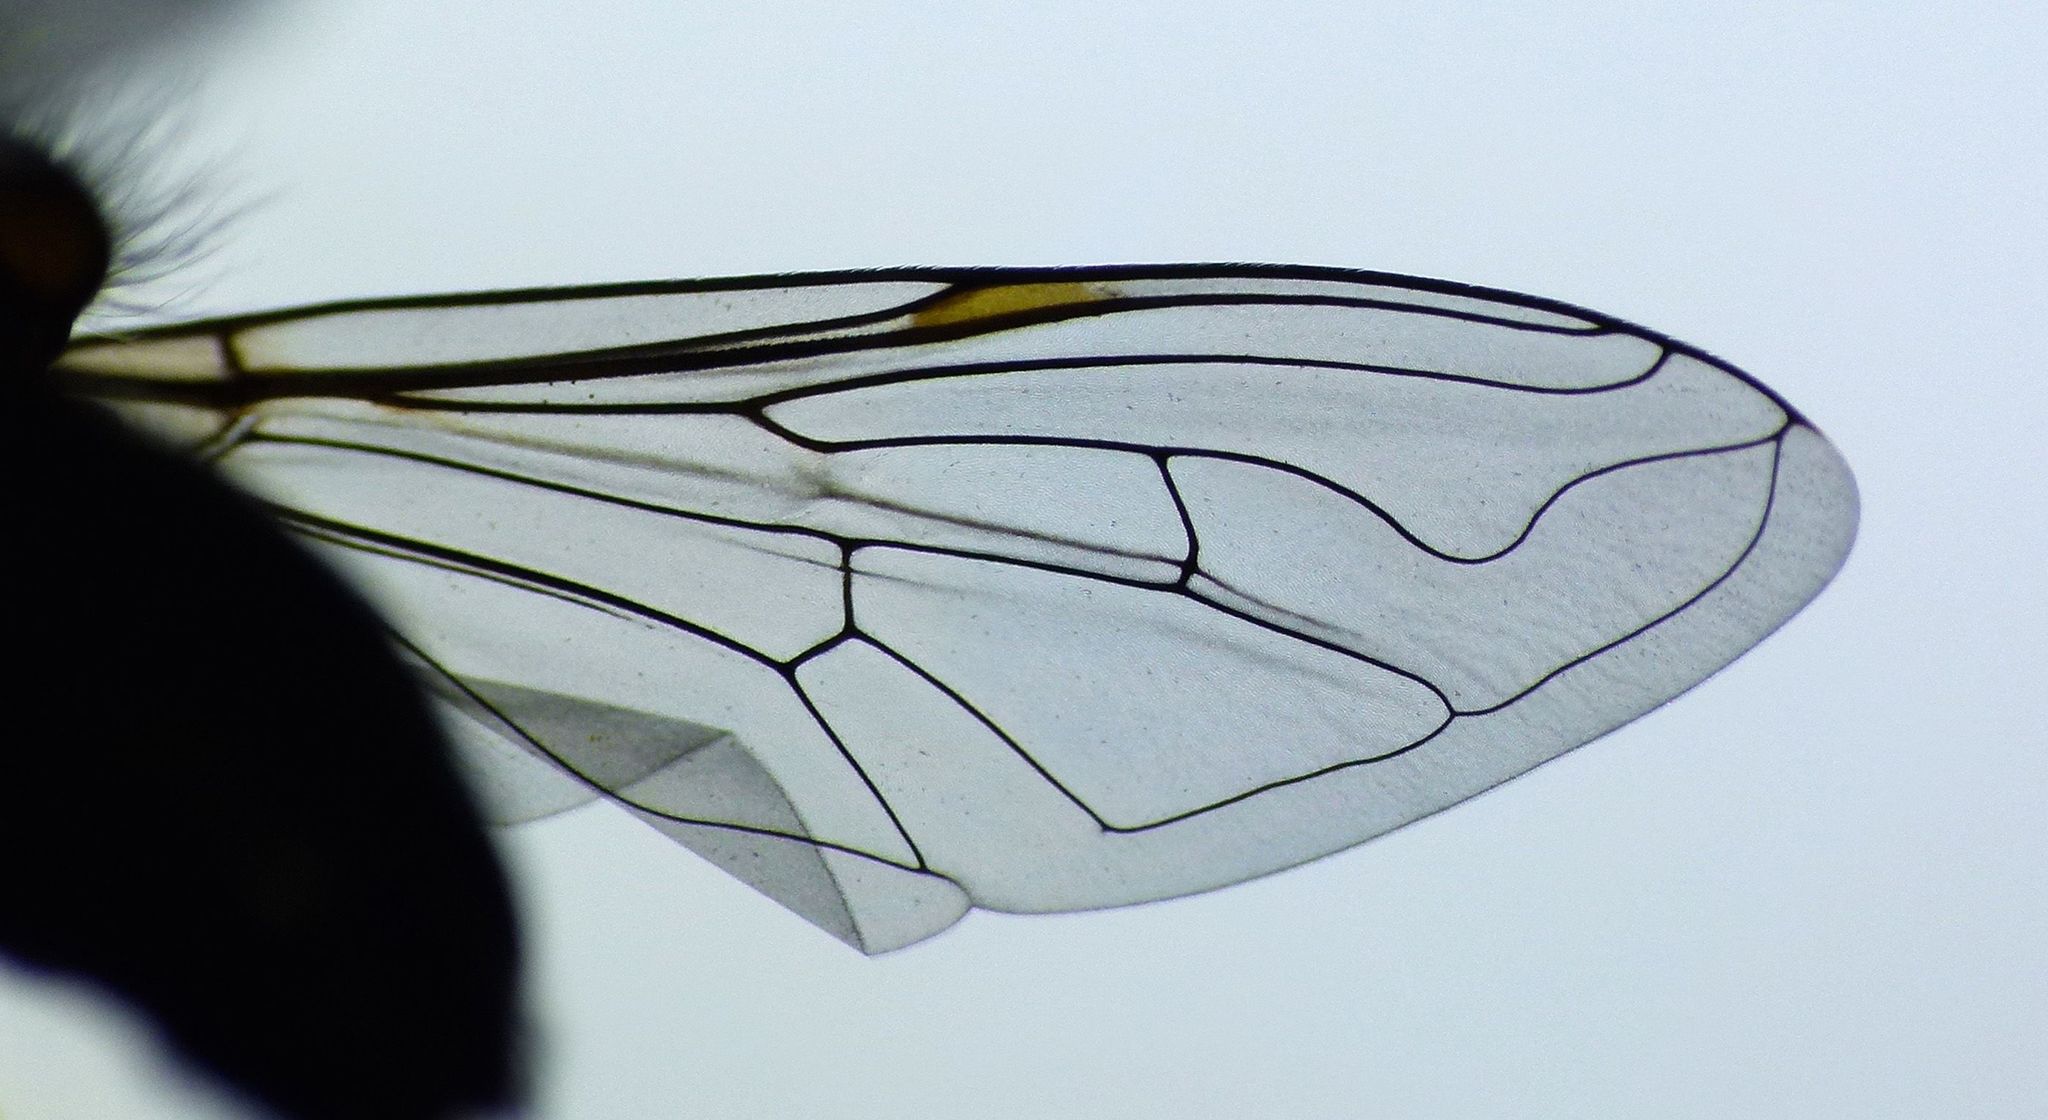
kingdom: Animalia
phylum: Arthropoda
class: Insecta
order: Diptera
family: Syrphidae
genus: Helophilus
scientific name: Helophilus hochstetteri
